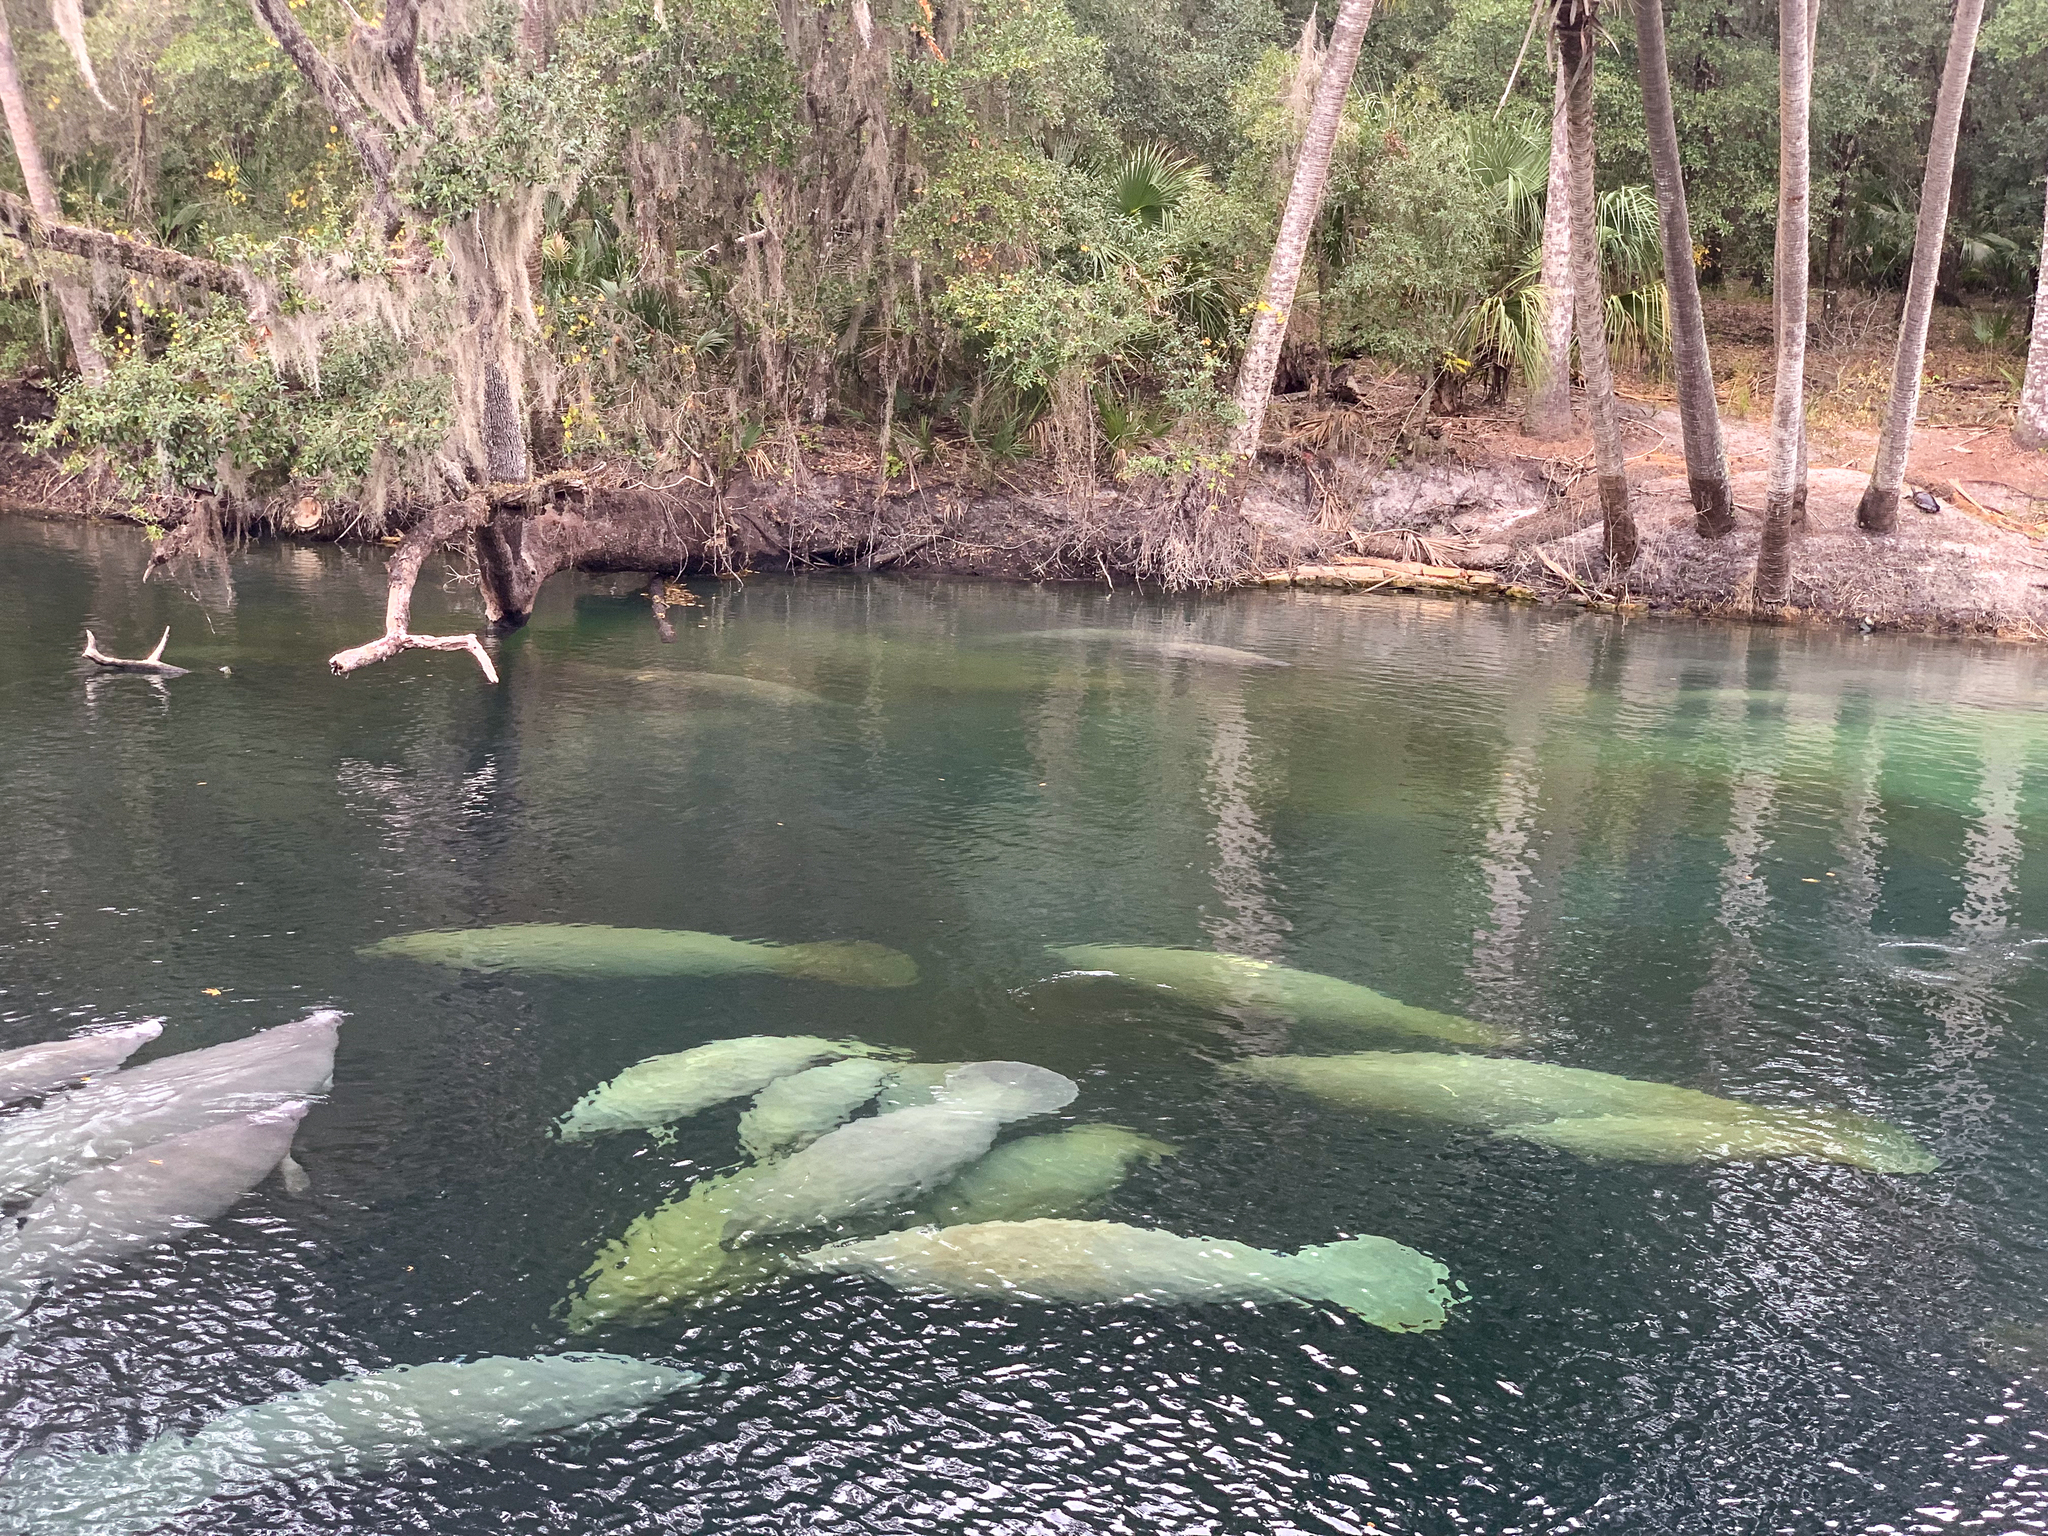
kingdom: Animalia
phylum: Chordata
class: Mammalia
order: Sirenia
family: Trichechidae
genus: Trichechus
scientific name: Trichechus manatus
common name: West indian manatee
